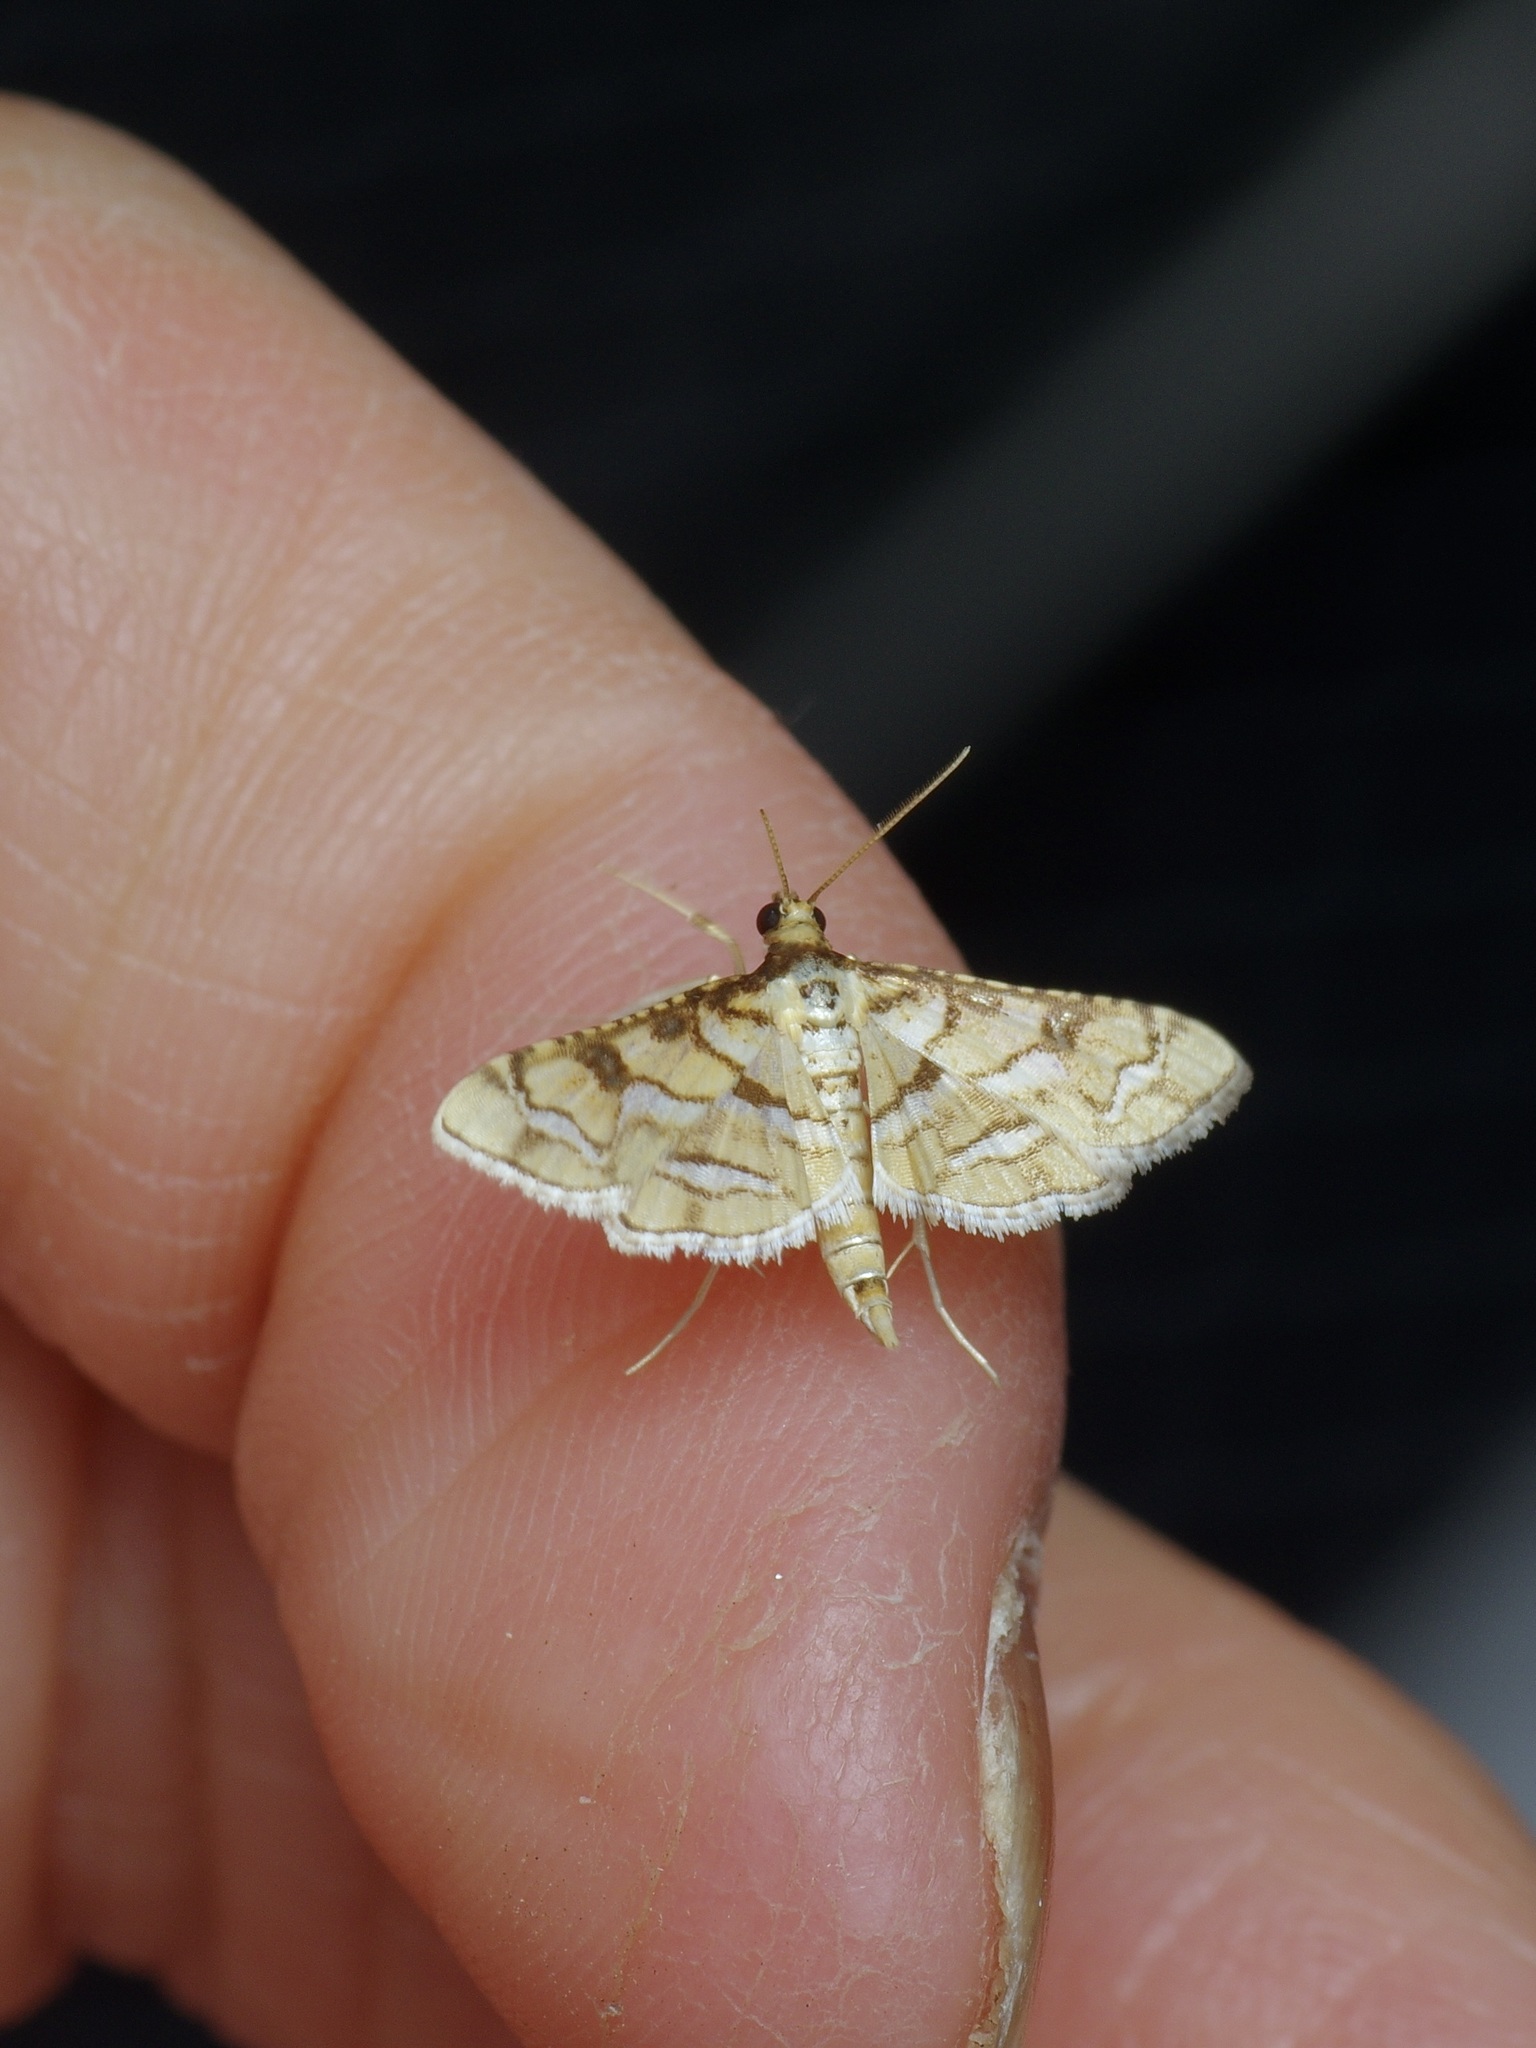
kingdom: Animalia
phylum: Arthropoda
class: Insecta
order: Lepidoptera
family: Crambidae
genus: Hileithia
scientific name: Hileithia magualis
